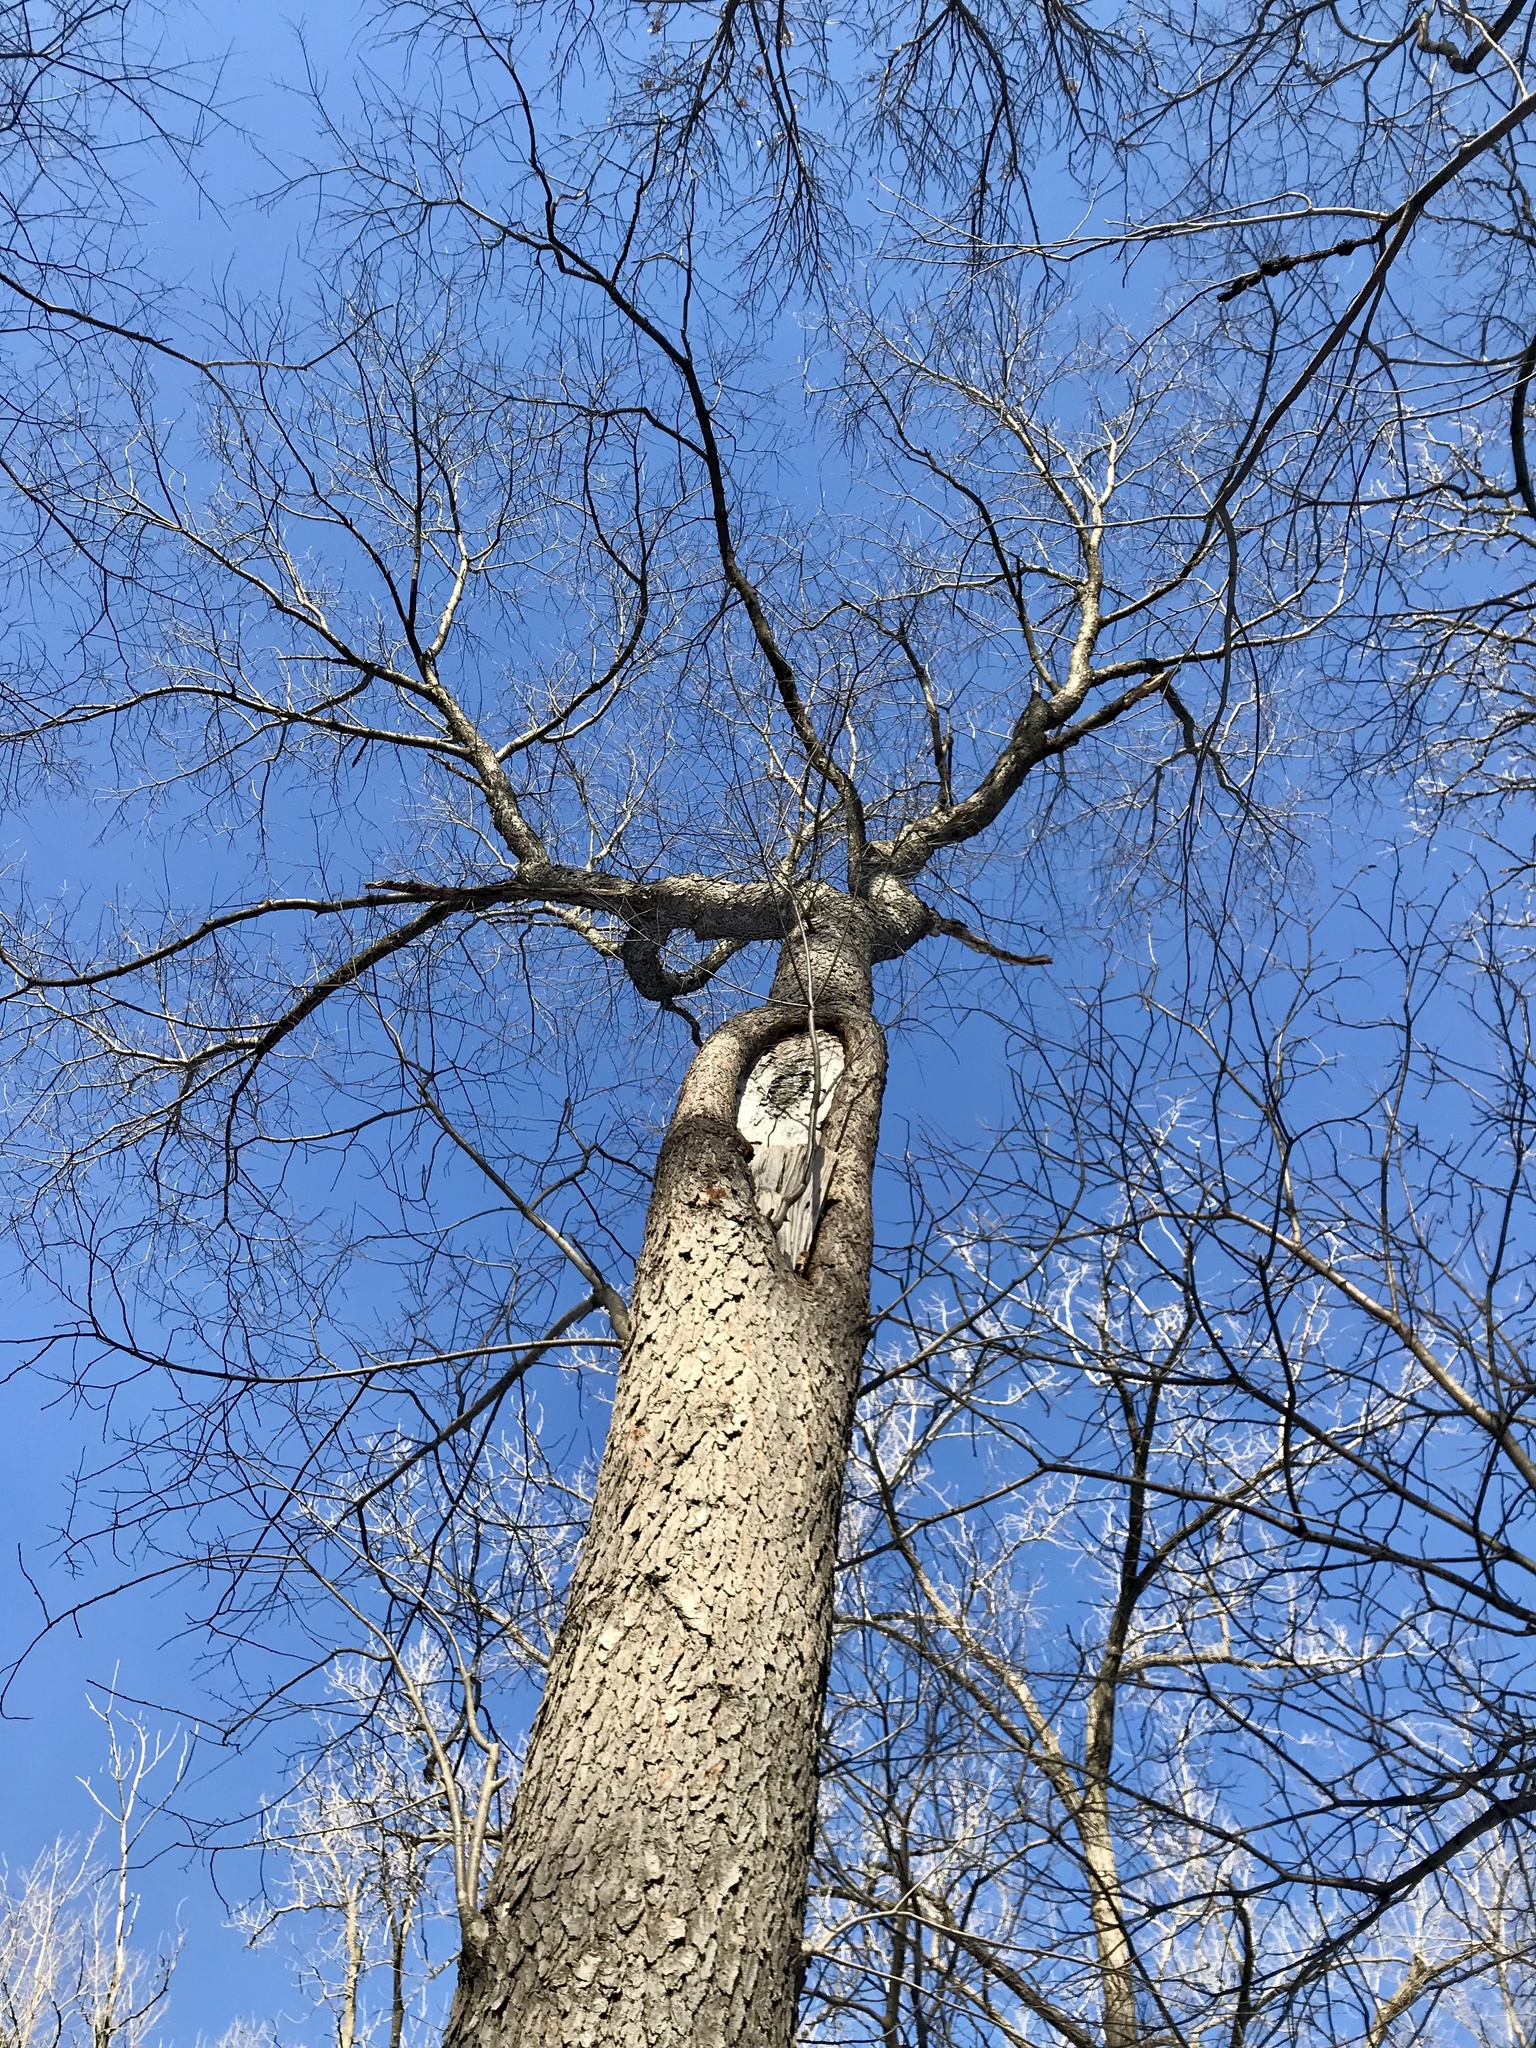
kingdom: Plantae
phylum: Tracheophyta
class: Magnoliopsida
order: Rosales
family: Rosaceae
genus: Prunus
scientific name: Prunus serotina
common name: Black cherry
